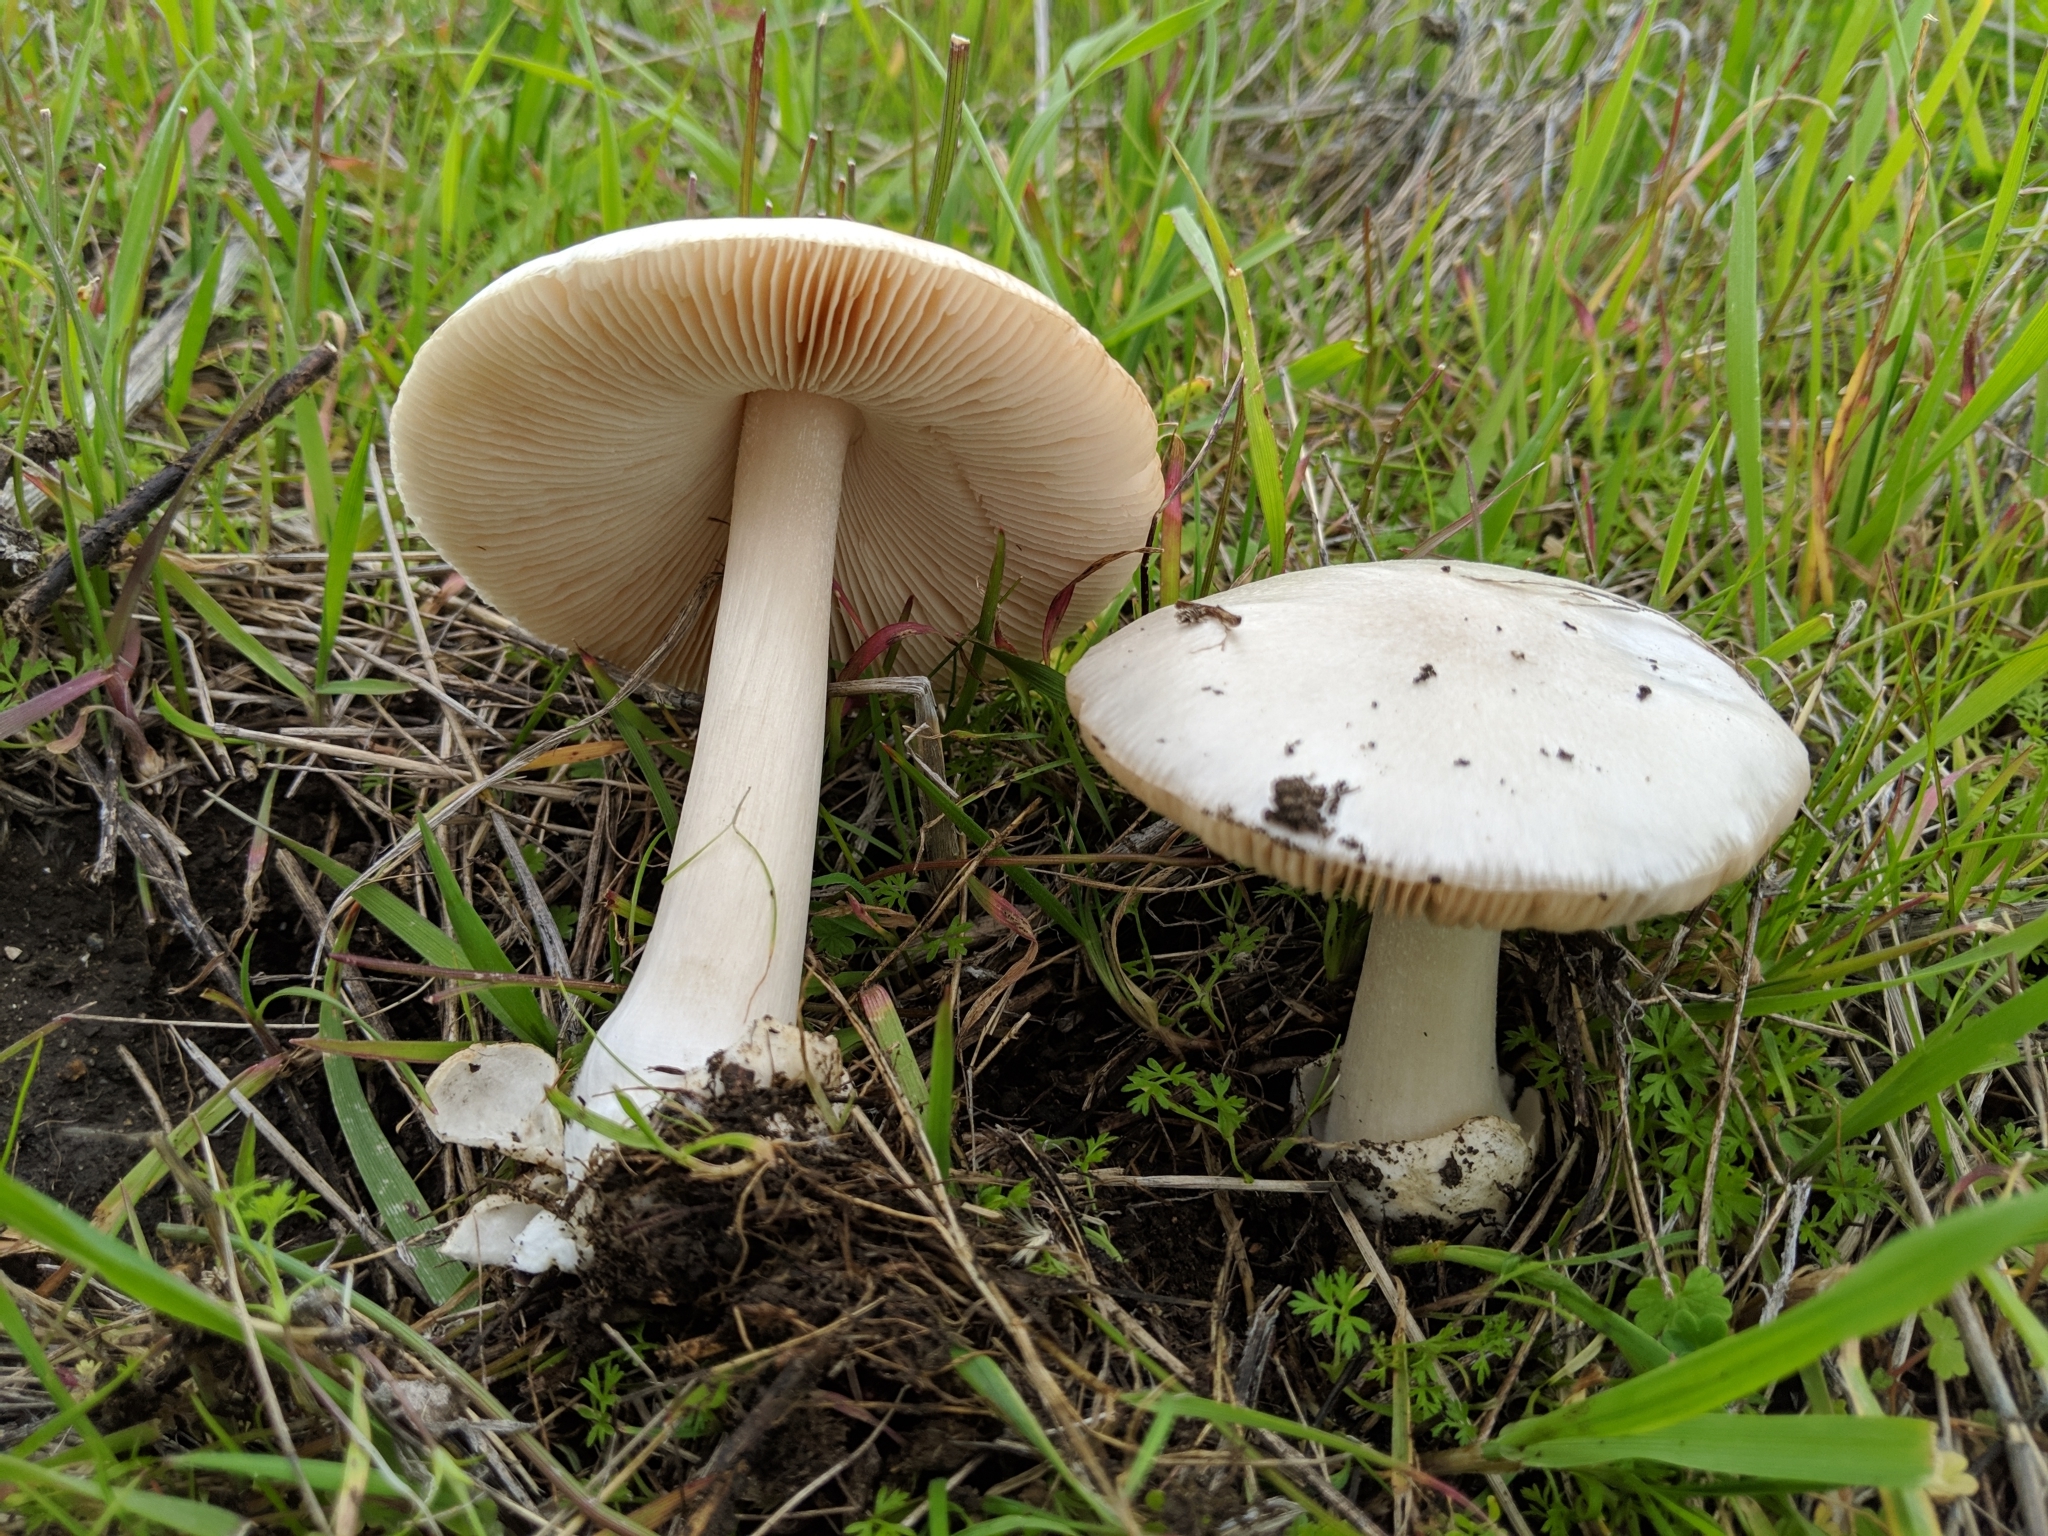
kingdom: Fungi
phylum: Basidiomycota
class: Agaricomycetes
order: Agaricales
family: Pluteaceae
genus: Volvopluteus
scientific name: Volvopluteus gloiocephalus
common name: Stubble rosegill
